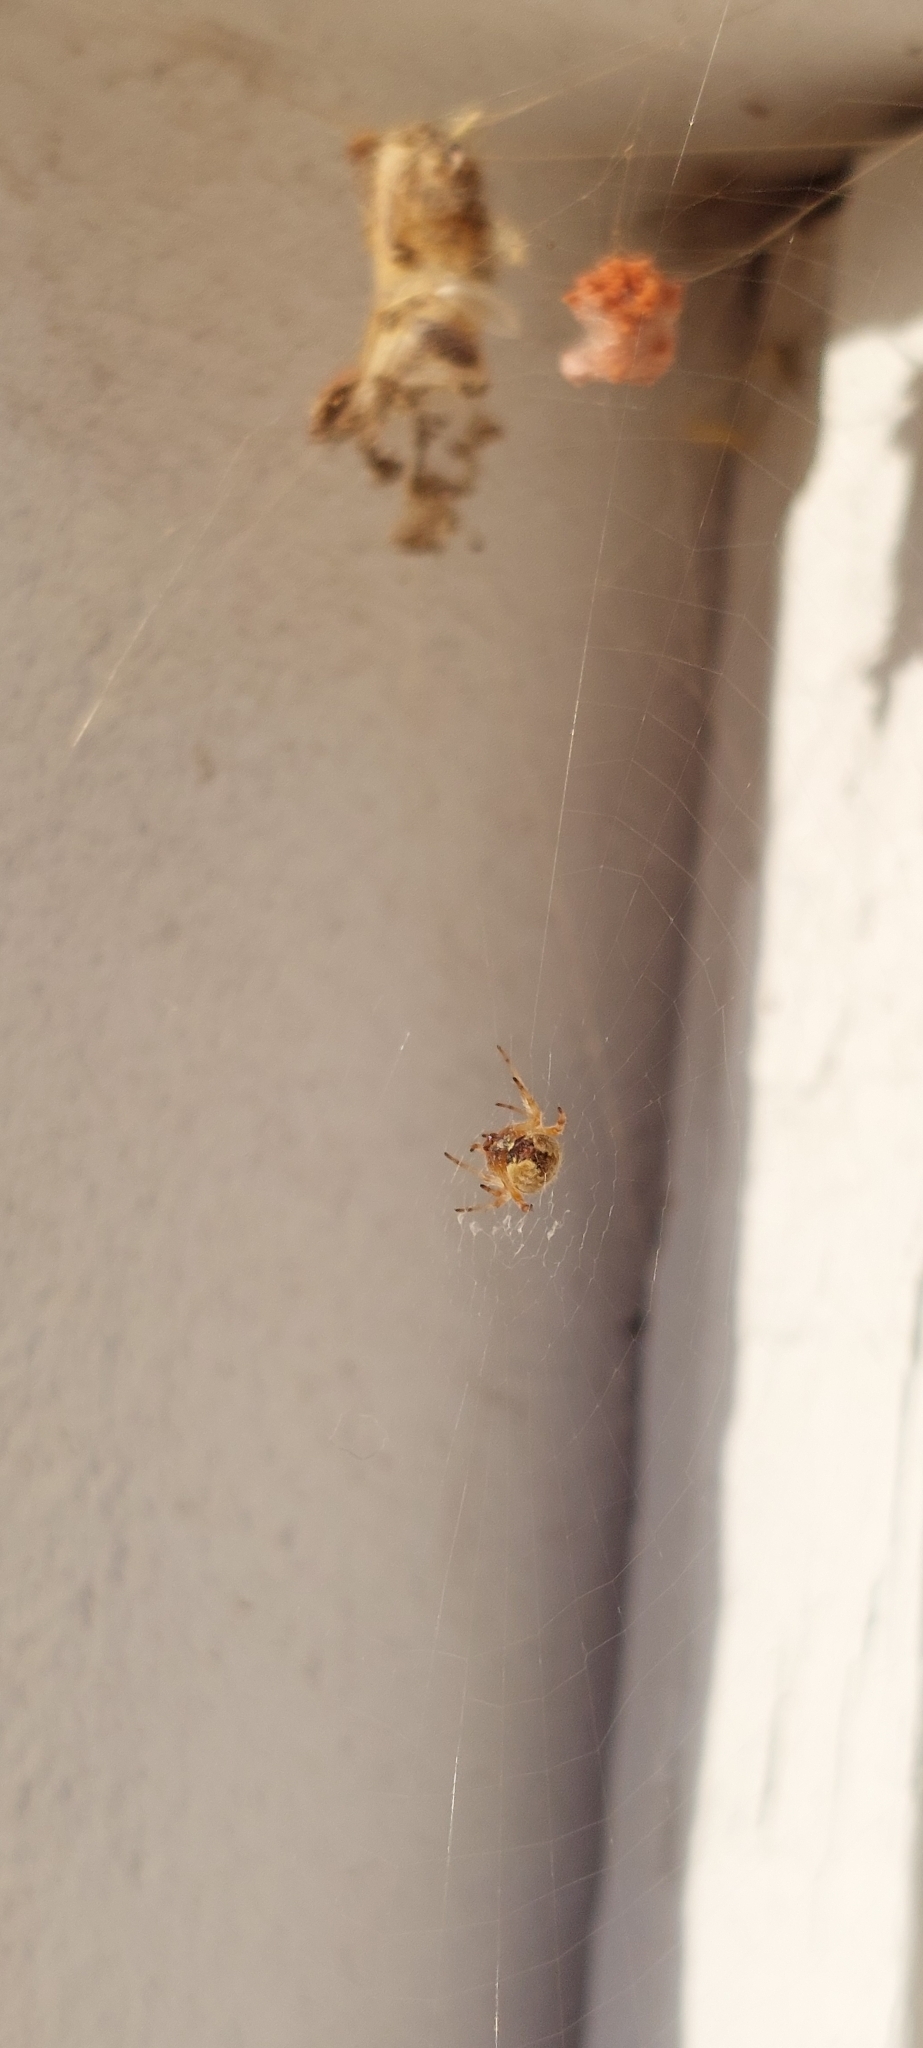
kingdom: Animalia
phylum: Arthropoda
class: Arachnida
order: Araneae
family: Araneidae
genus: Metepeira
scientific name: Metepeira
